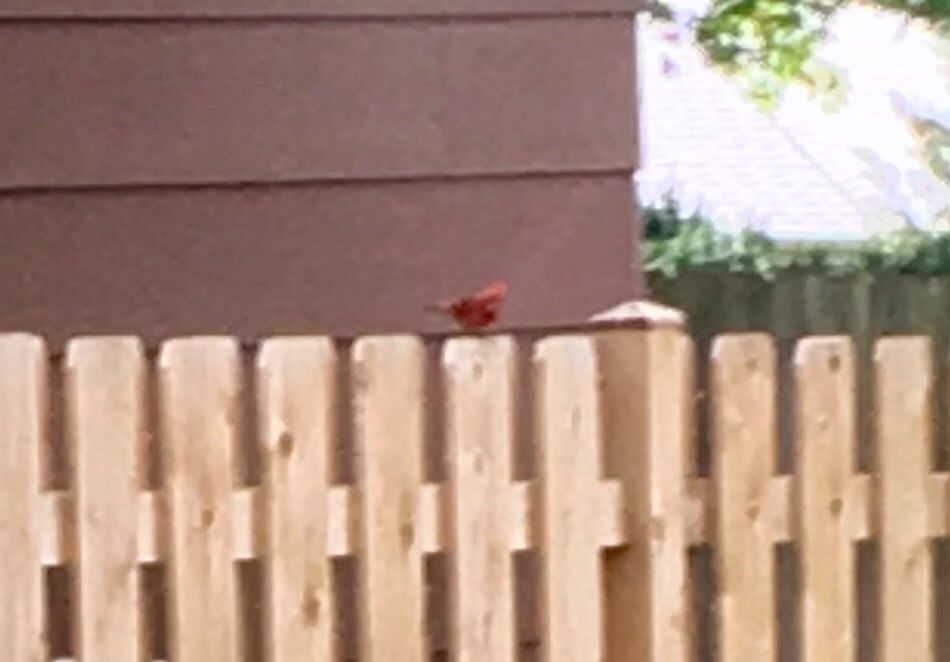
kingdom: Animalia
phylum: Chordata
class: Aves
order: Passeriformes
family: Cardinalidae
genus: Cardinalis
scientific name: Cardinalis cardinalis
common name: Northern cardinal
